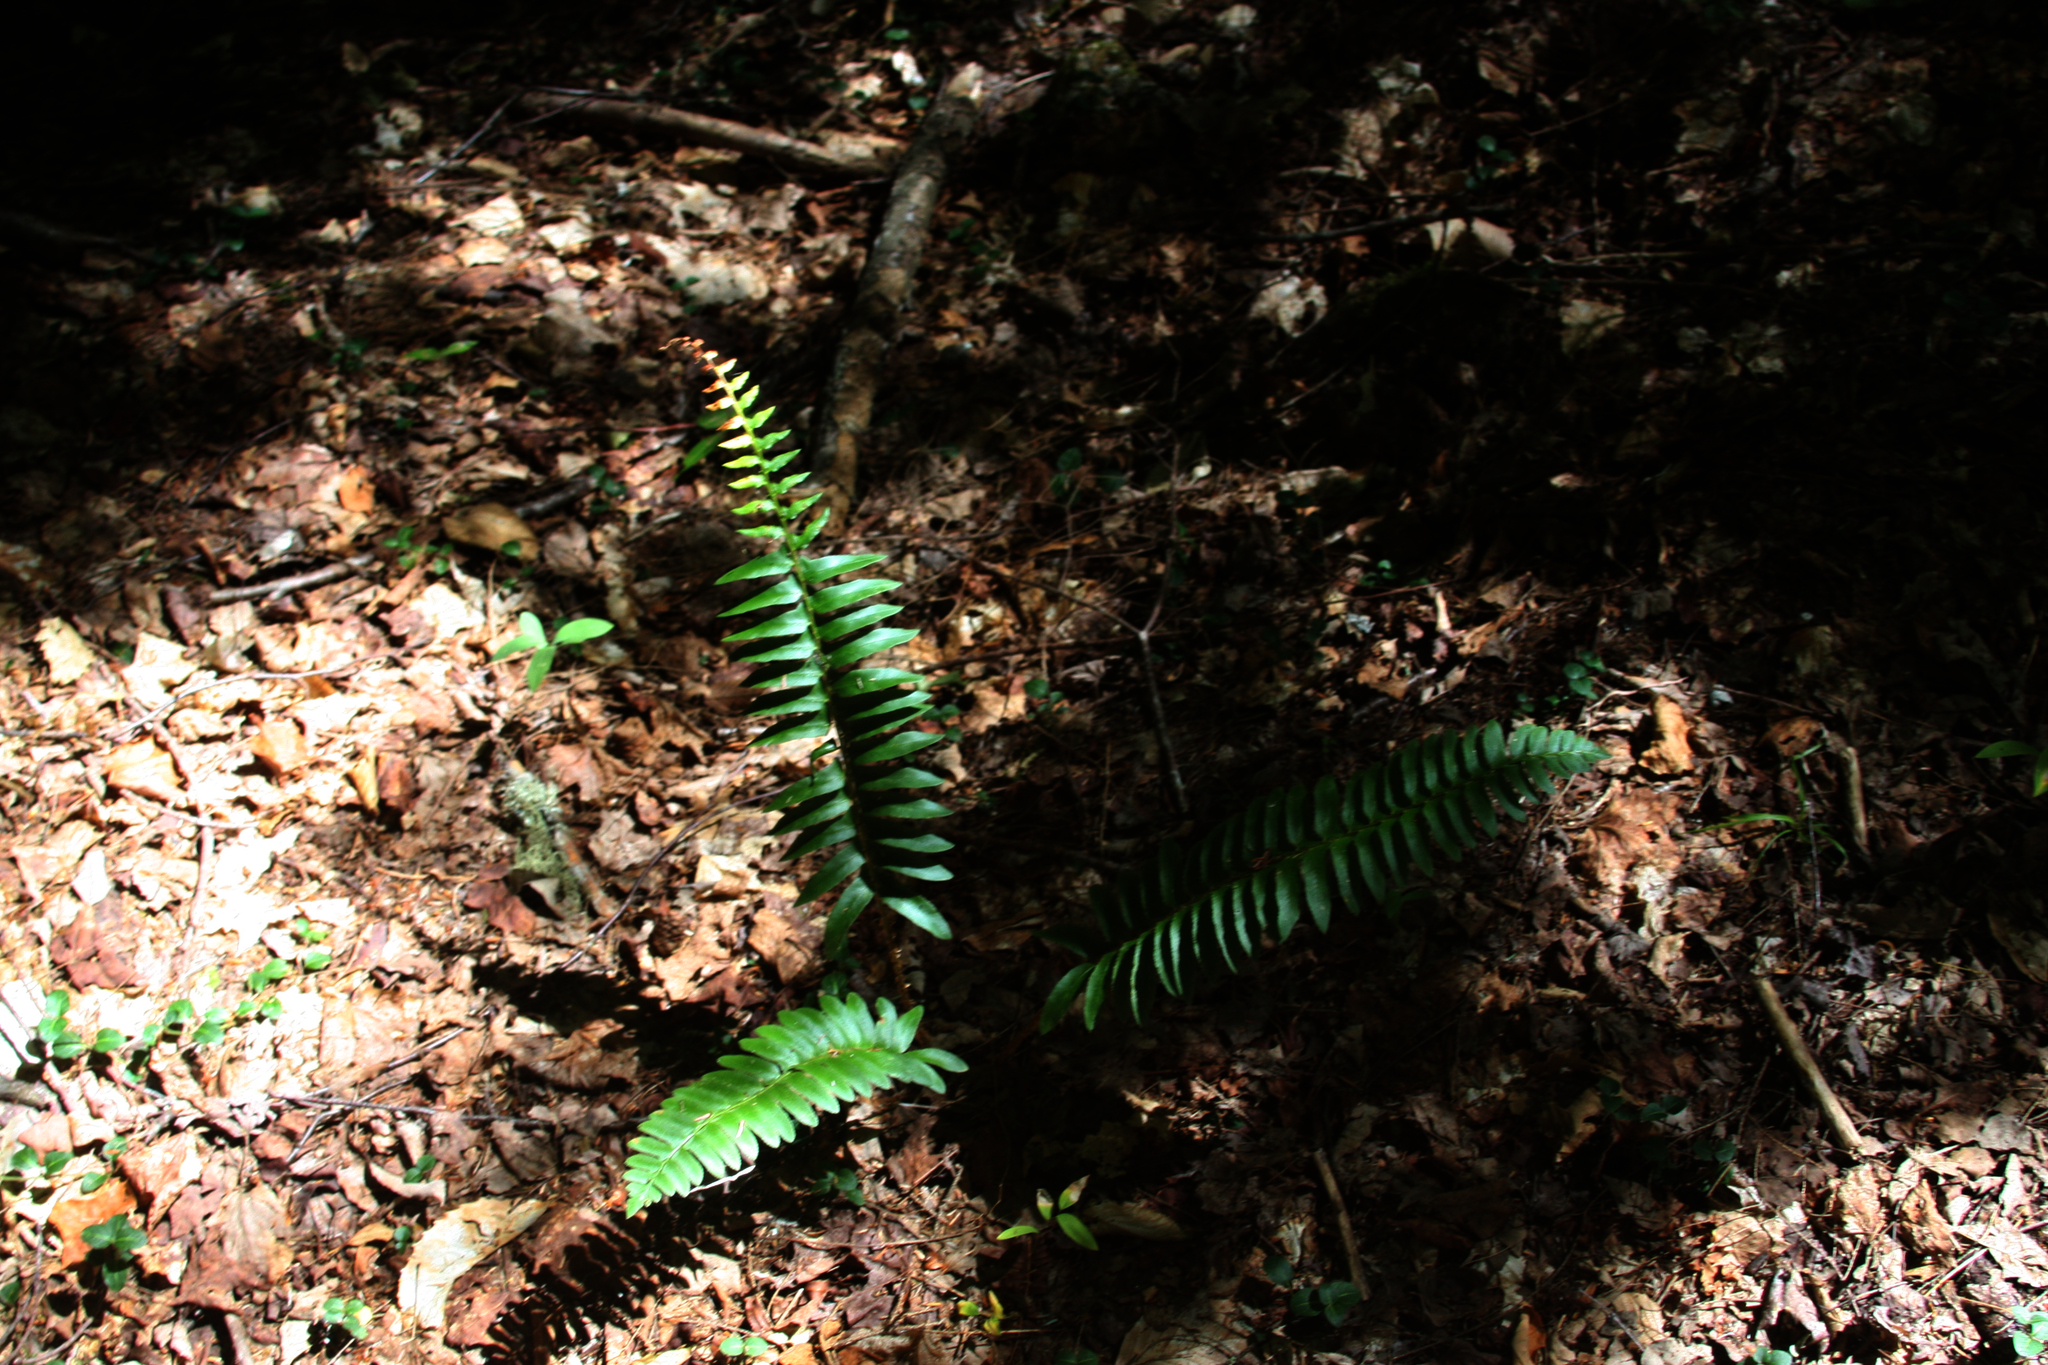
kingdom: Plantae
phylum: Tracheophyta
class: Polypodiopsida
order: Polypodiales
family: Dryopteridaceae
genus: Polystichum
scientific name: Polystichum acrostichoides
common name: Christmas fern
